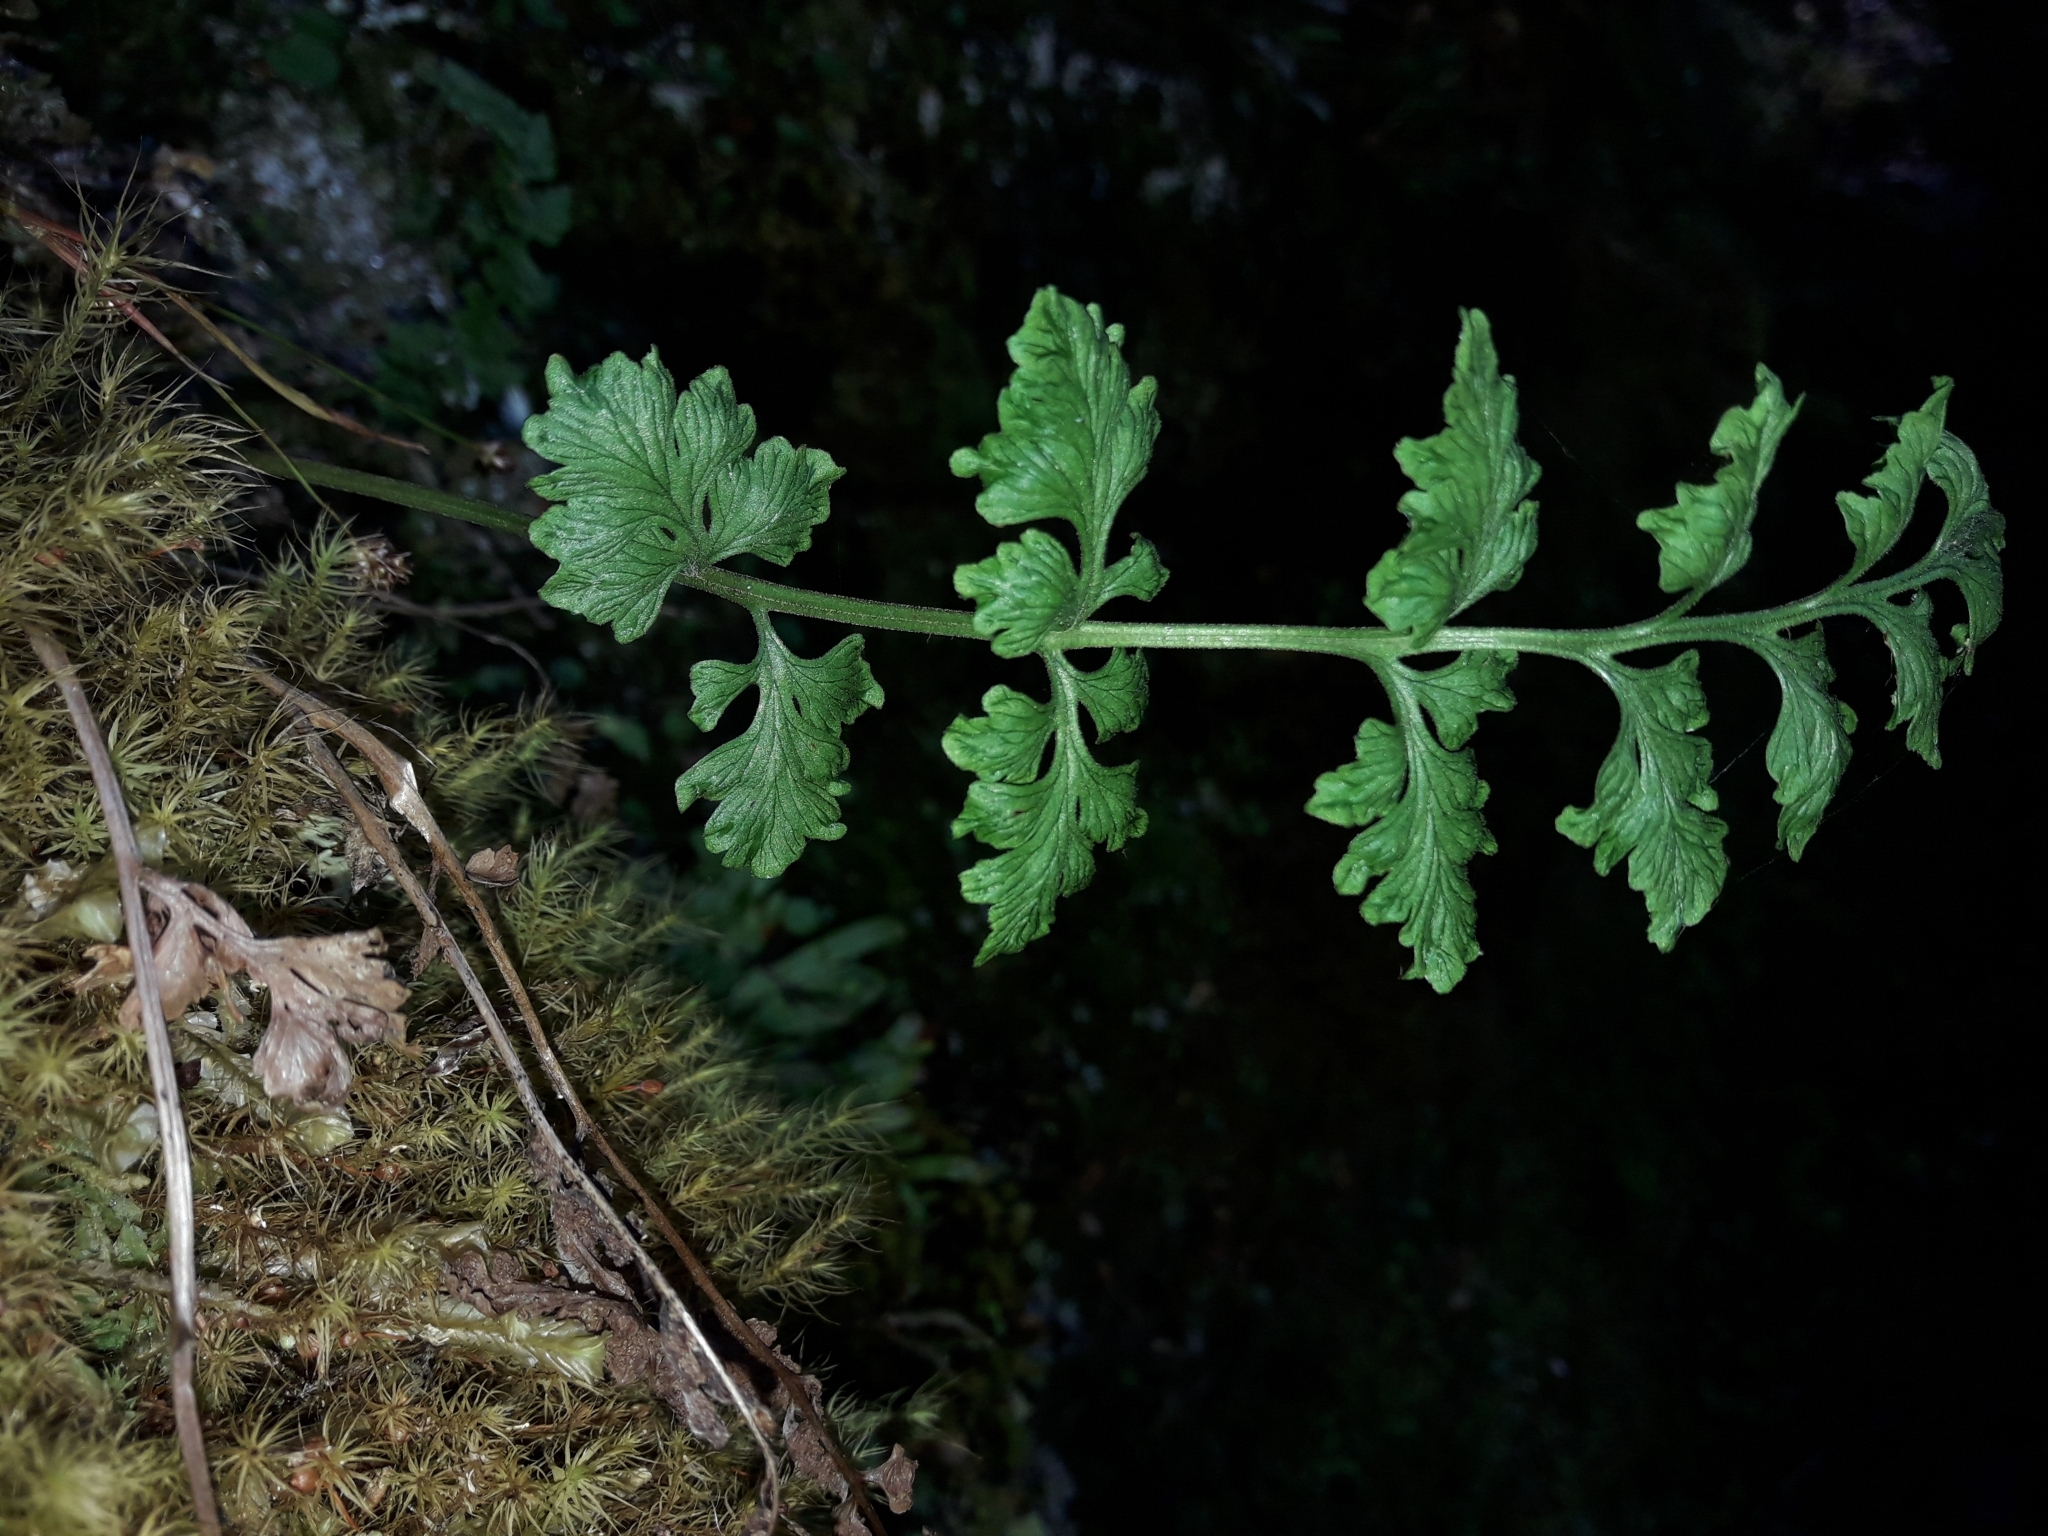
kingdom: Plantae
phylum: Tracheophyta
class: Polypodiopsida
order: Polypodiales
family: Cystopteridaceae
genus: Cystopteris
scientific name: Cystopteris tasmanica
